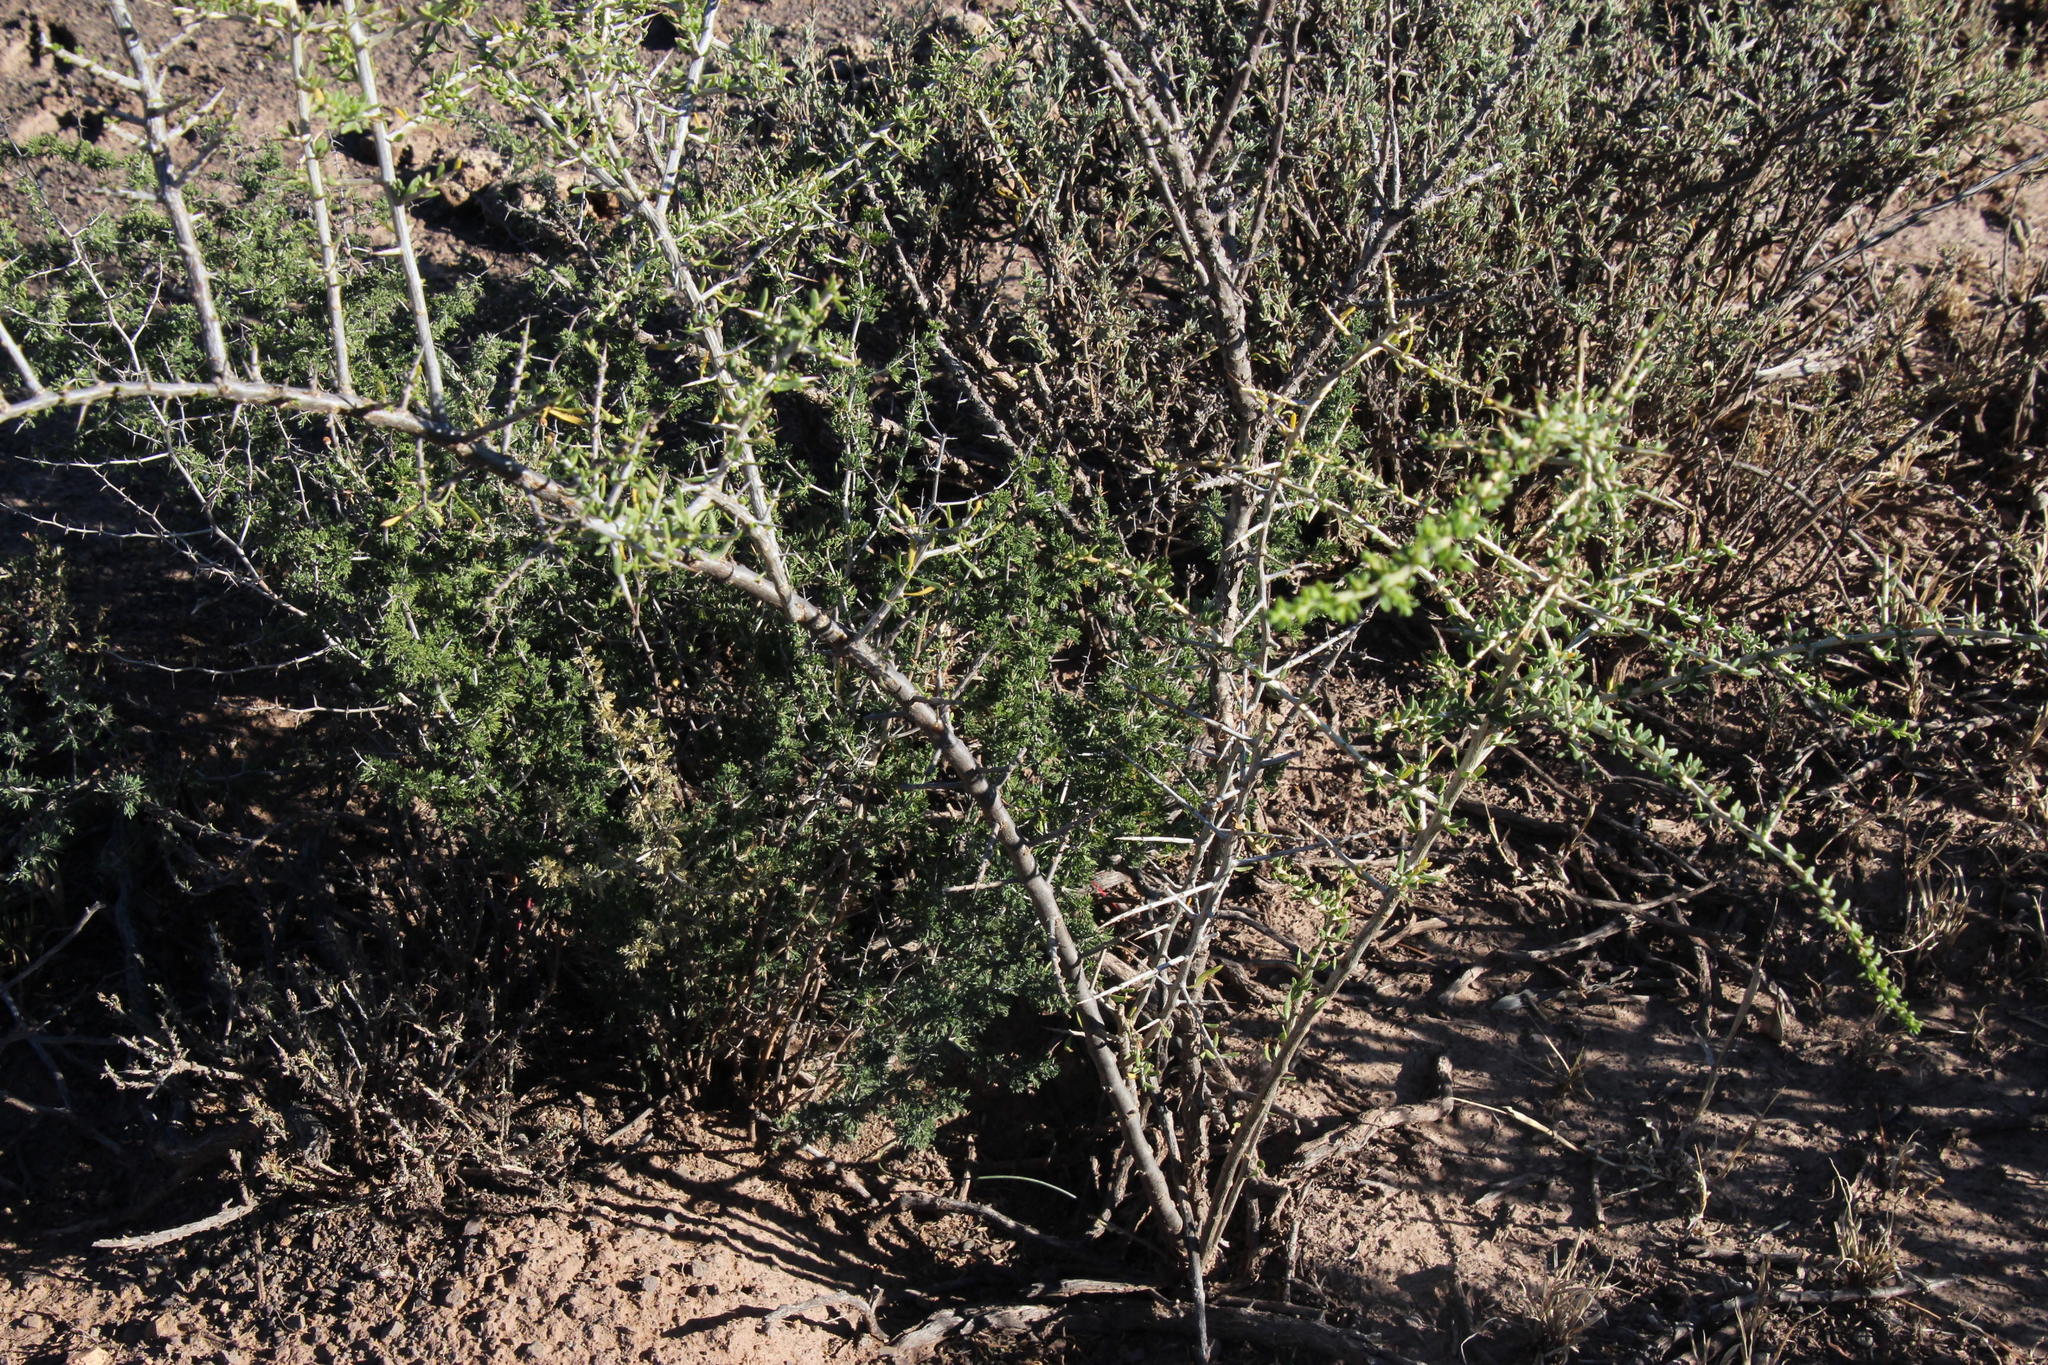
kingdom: Plantae
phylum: Tracheophyta
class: Liliopsida
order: Asparagales
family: Asparagaceae
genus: Asparagus
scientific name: Asparagus suaveolens
